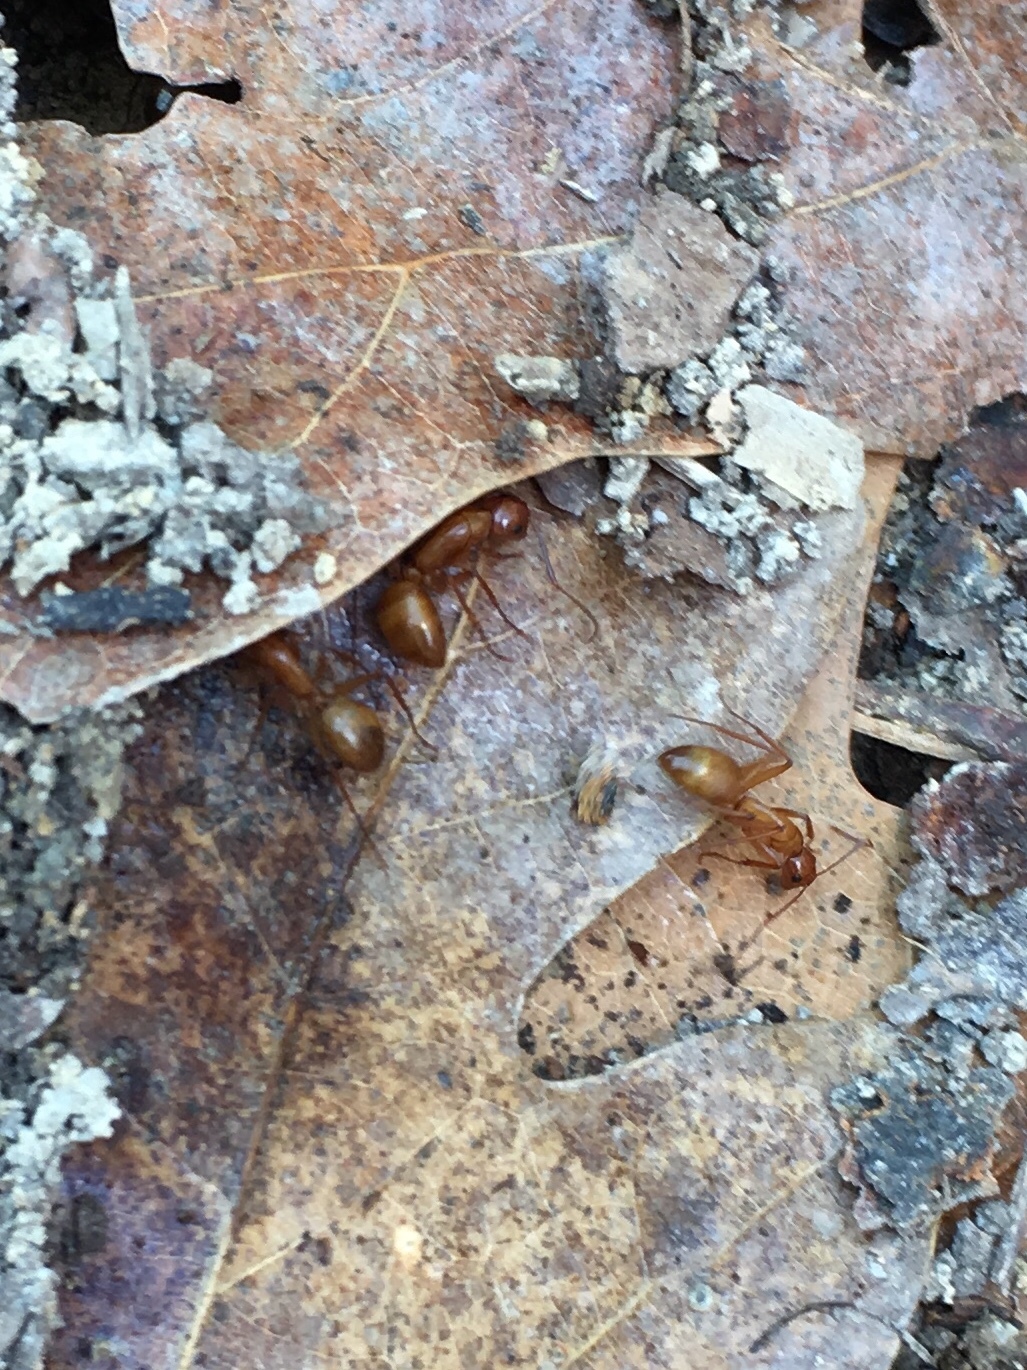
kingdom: Animalia
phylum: Arthropoda
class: Insecta
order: Hymenoptera
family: Formicidae
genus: Camponotus
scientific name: Camponotus castaneus
